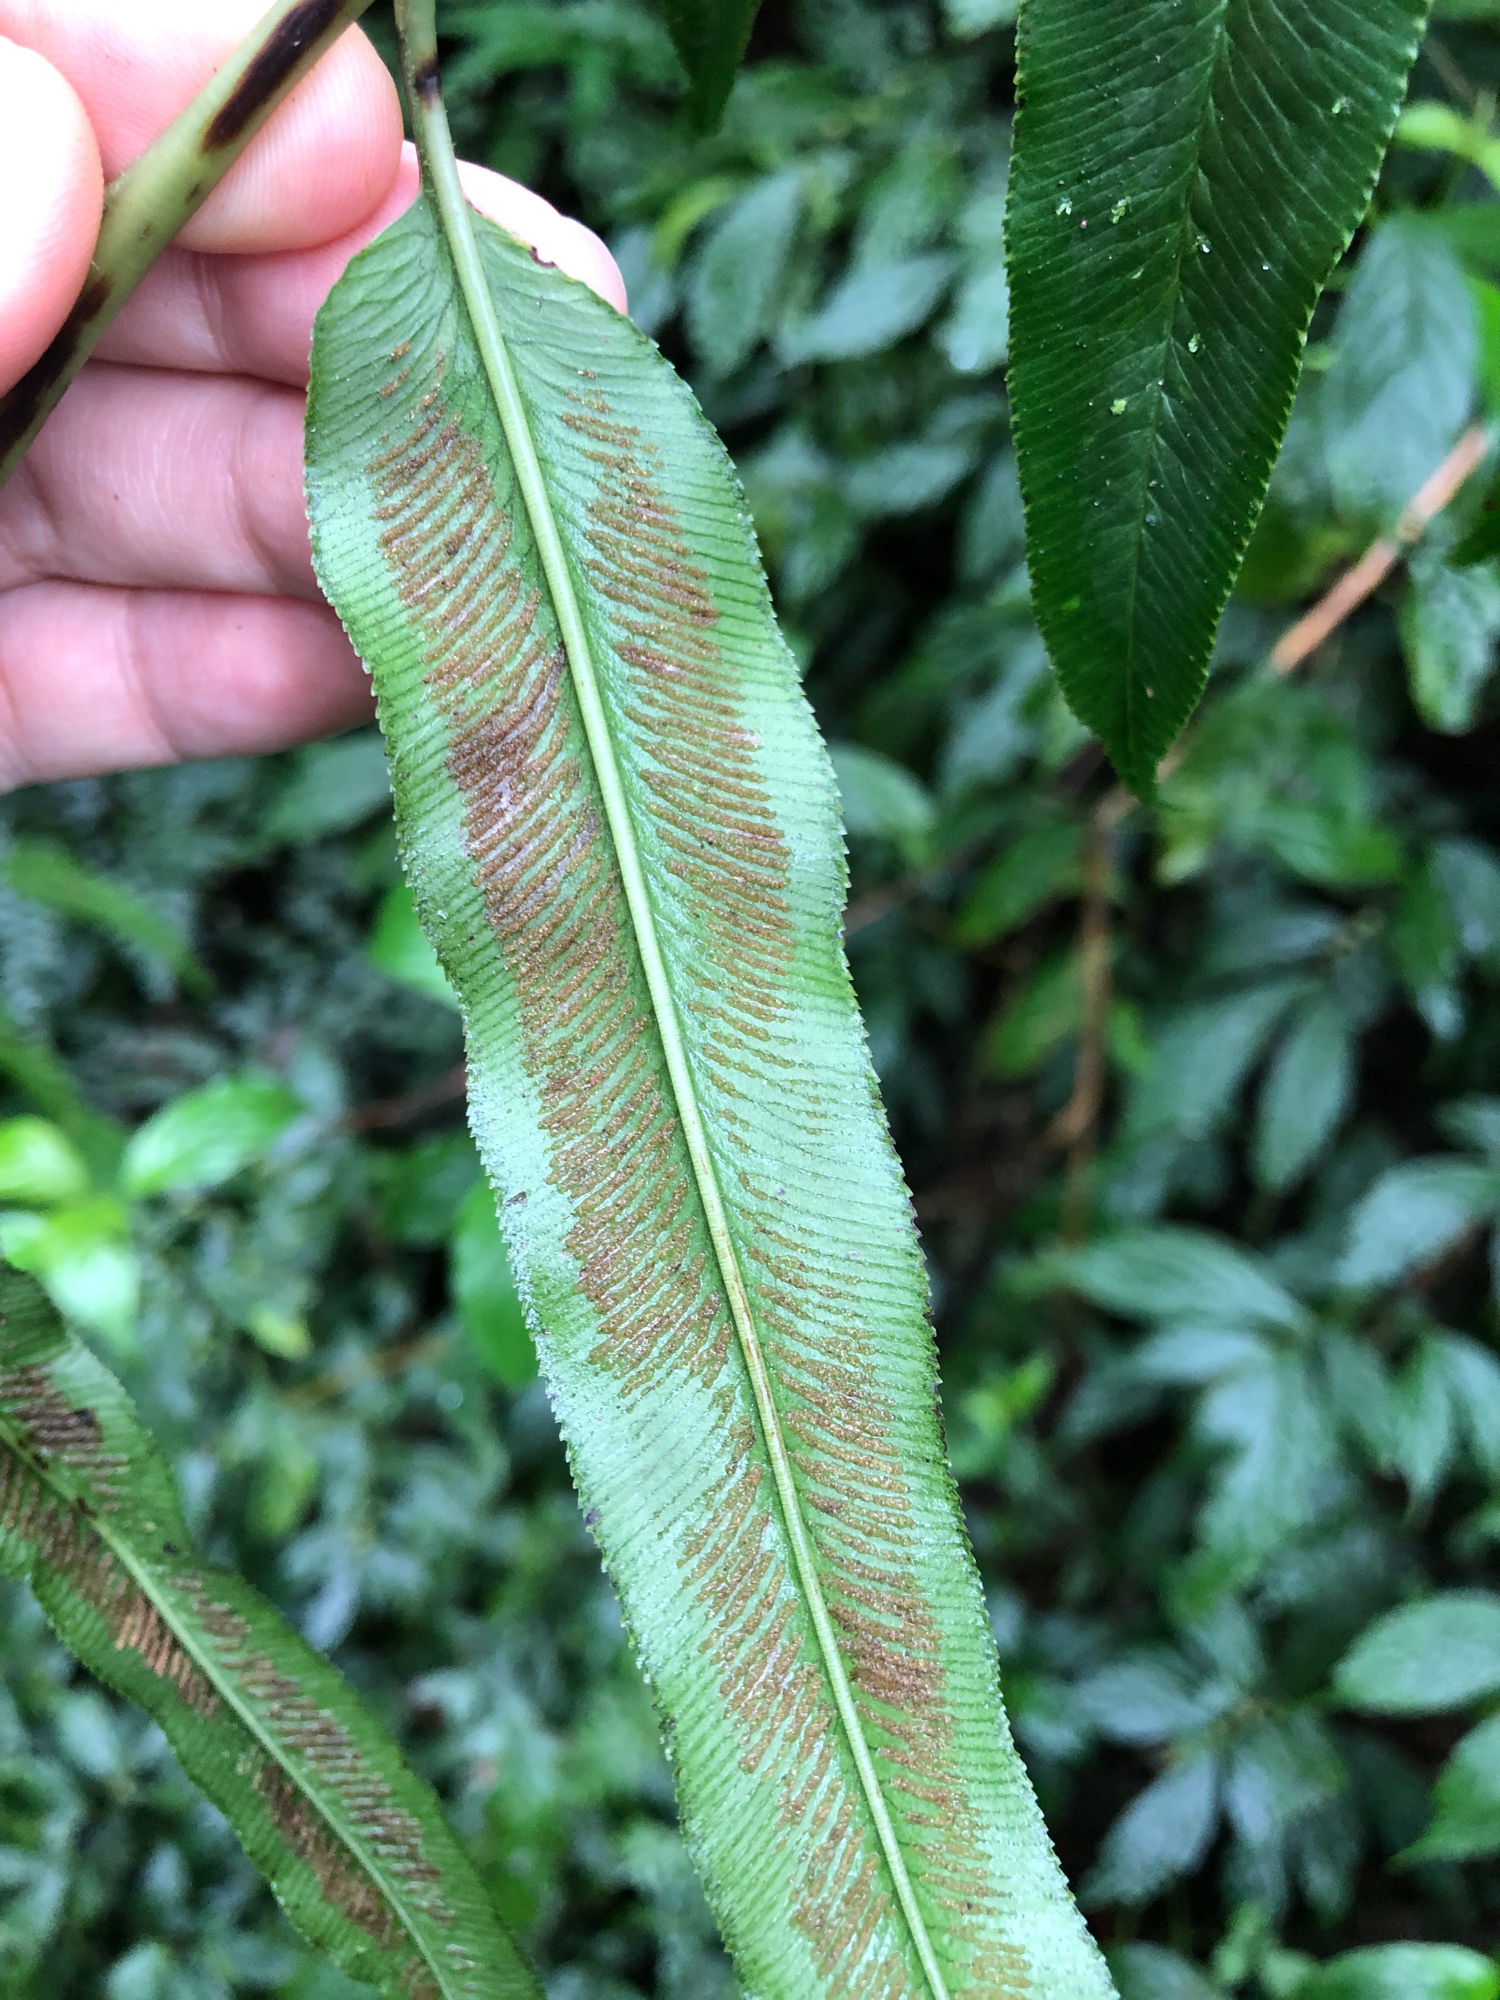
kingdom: Plantae
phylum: Tracheophyta
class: Polypodiopsida
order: Polypodiales
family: Pteridaceae
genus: Coniogramme
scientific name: Coniogramme intermedia
